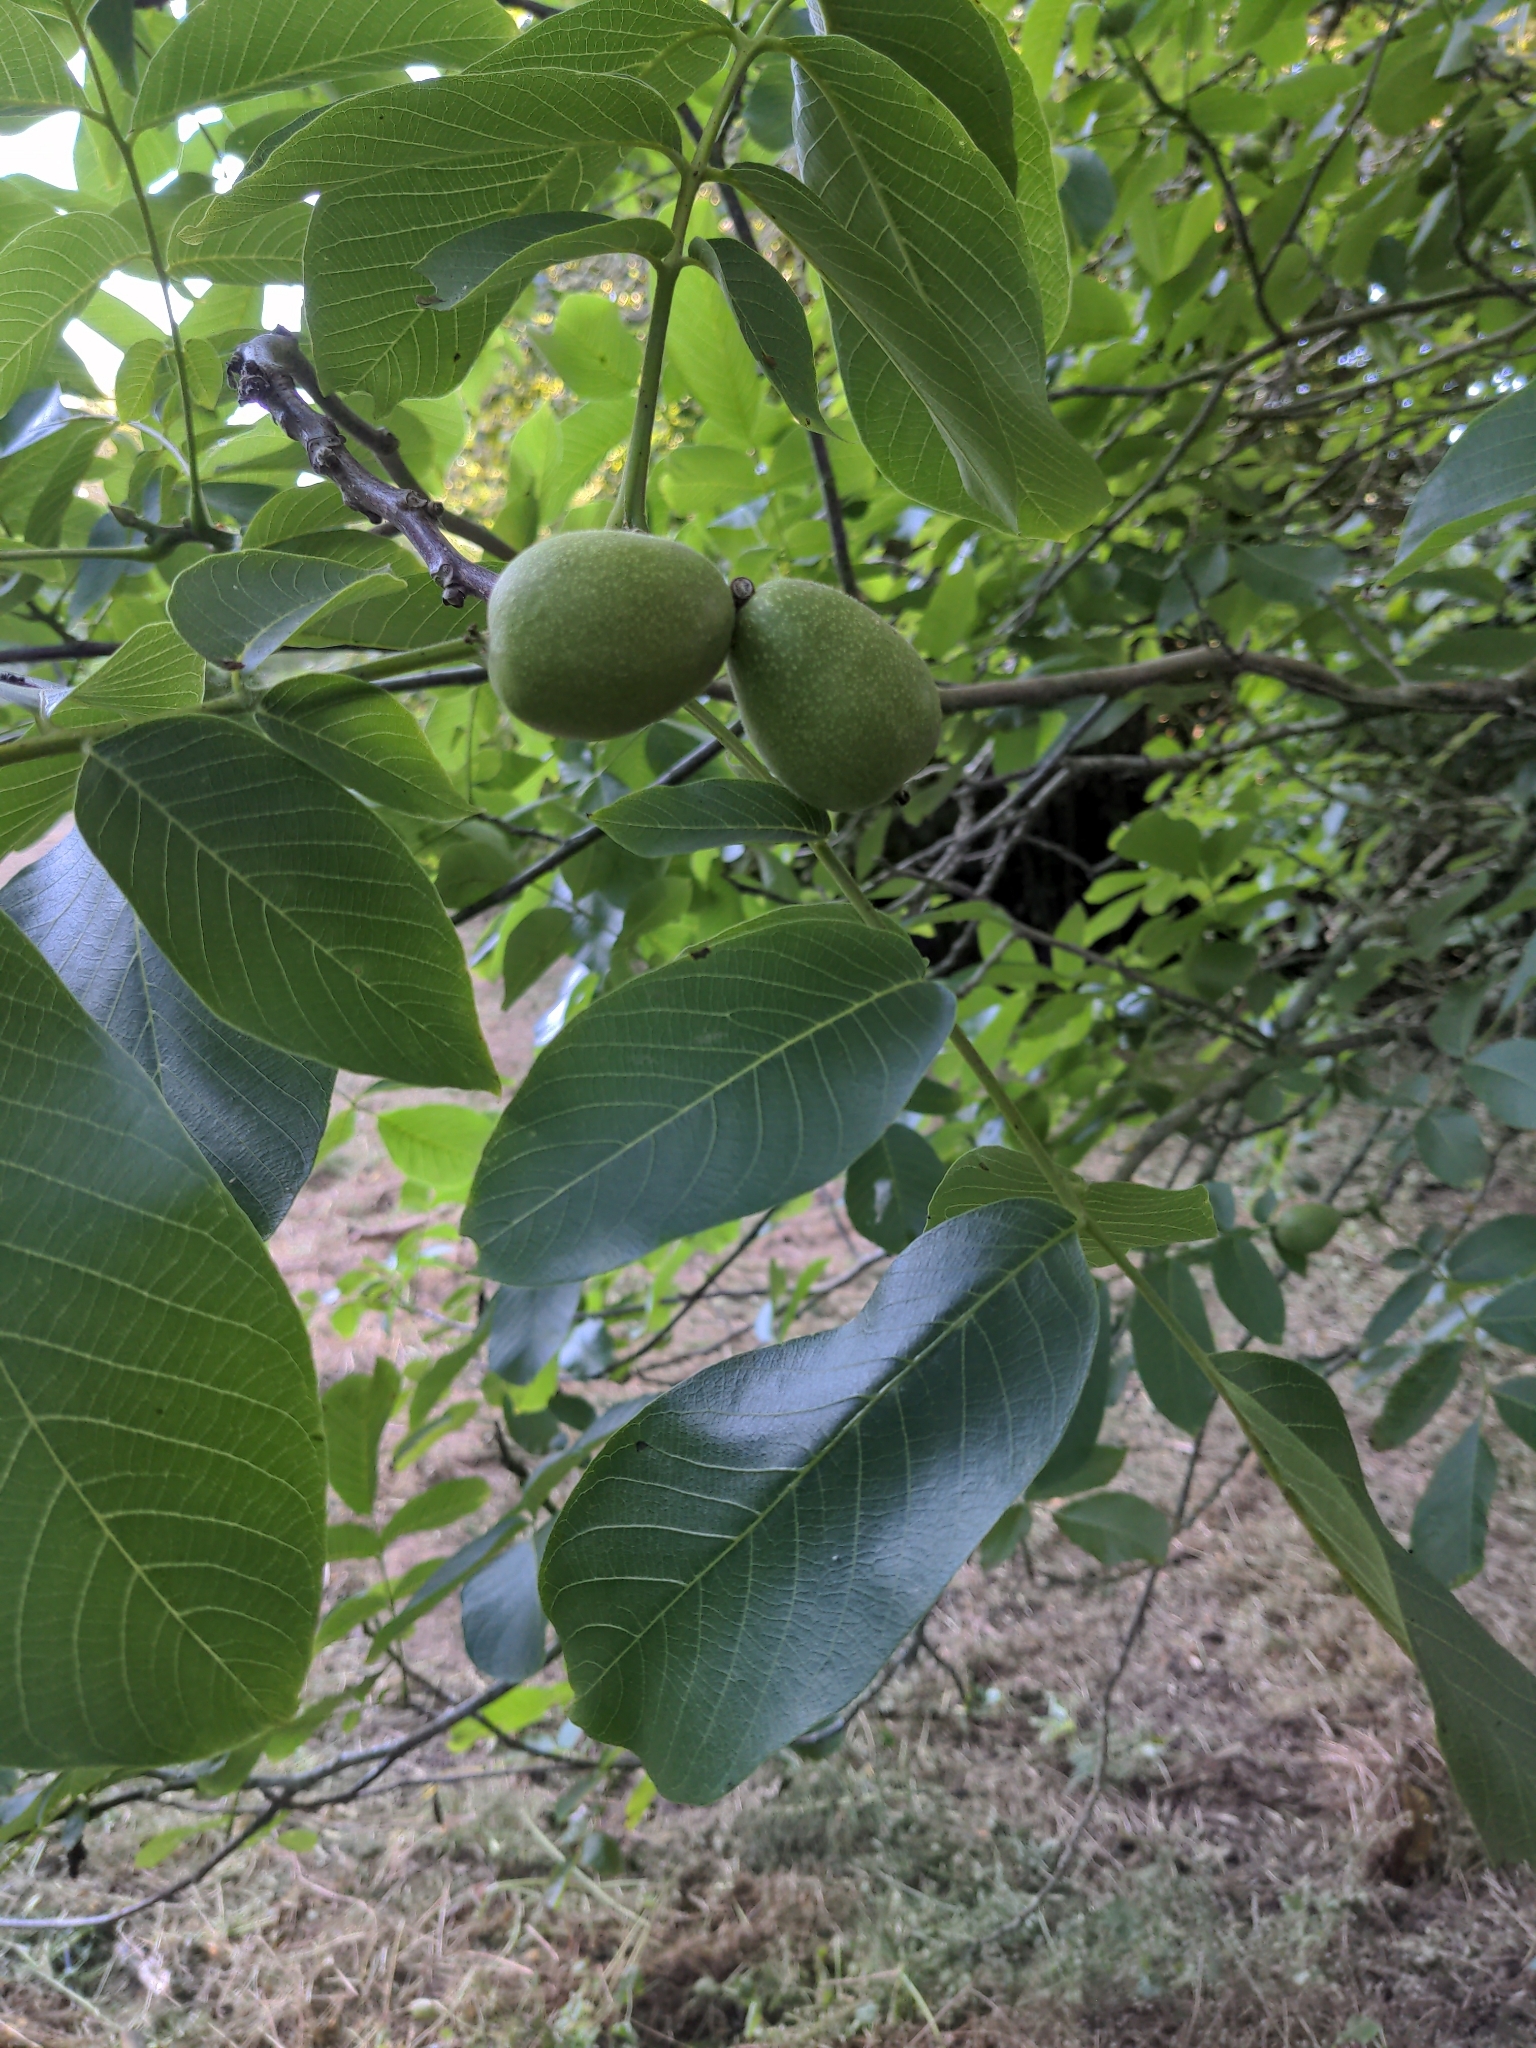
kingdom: Plantae
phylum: Tracheophyta
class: Magnoliopsida
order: Fagales
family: Juglandaceae
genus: Juglans
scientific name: Juglans regia
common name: Walnut
